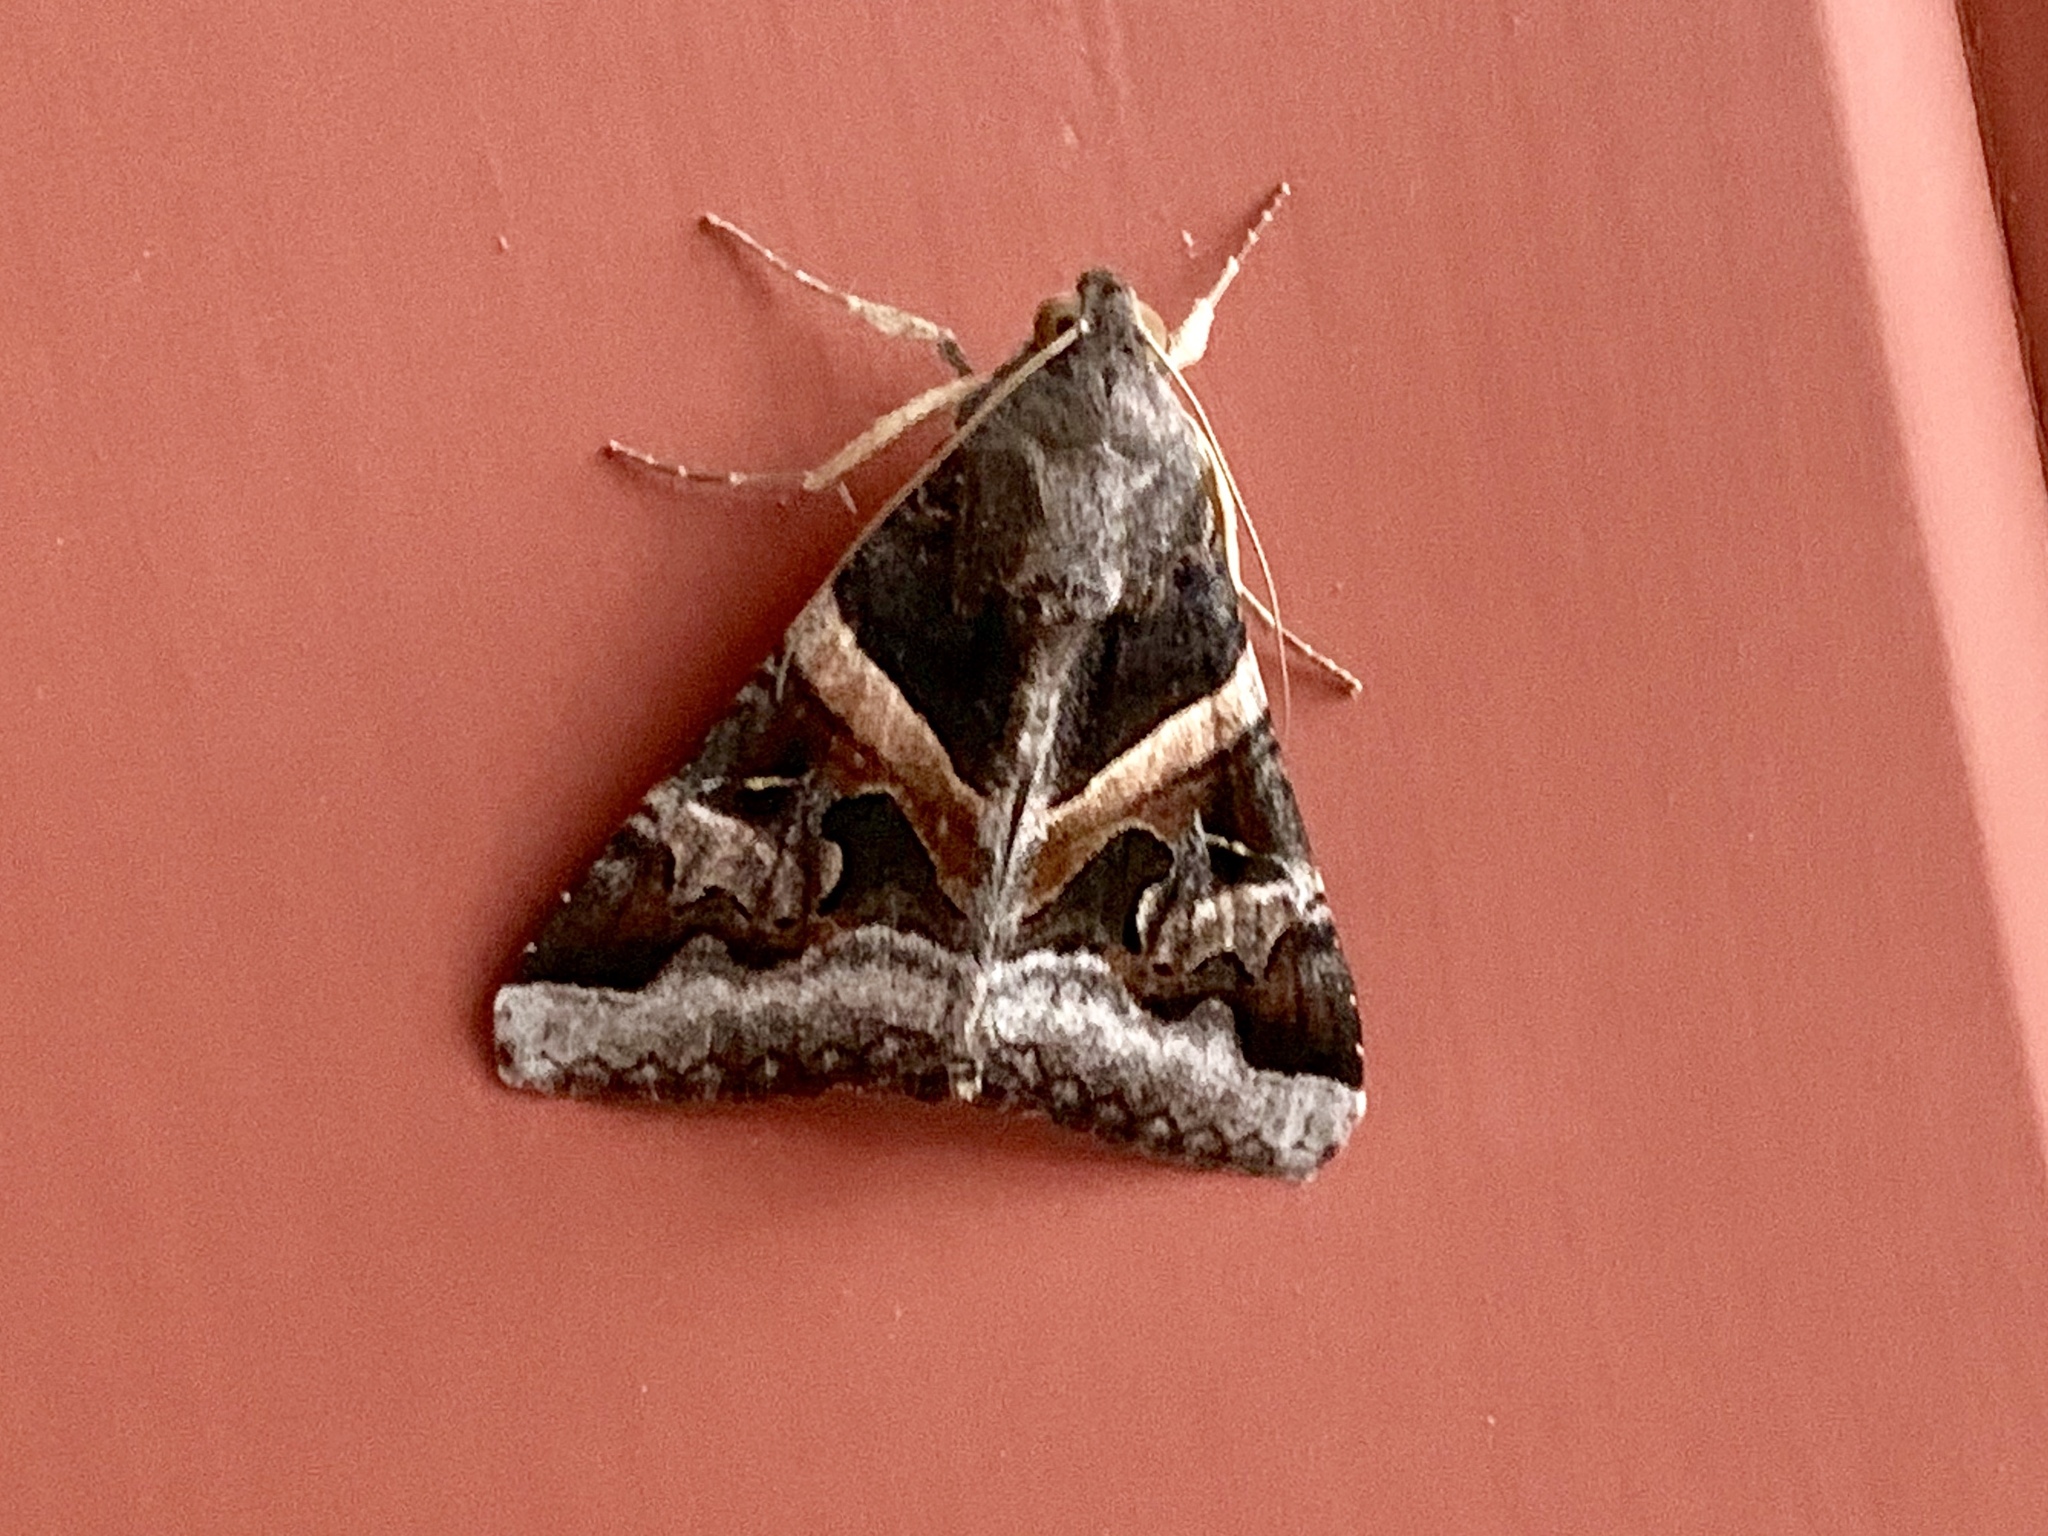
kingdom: Animalia
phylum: Arthropoda
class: Insecta
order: Lepidoptera
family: Erebidae
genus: Melipotis
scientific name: Melipotis indomita
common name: Moth
